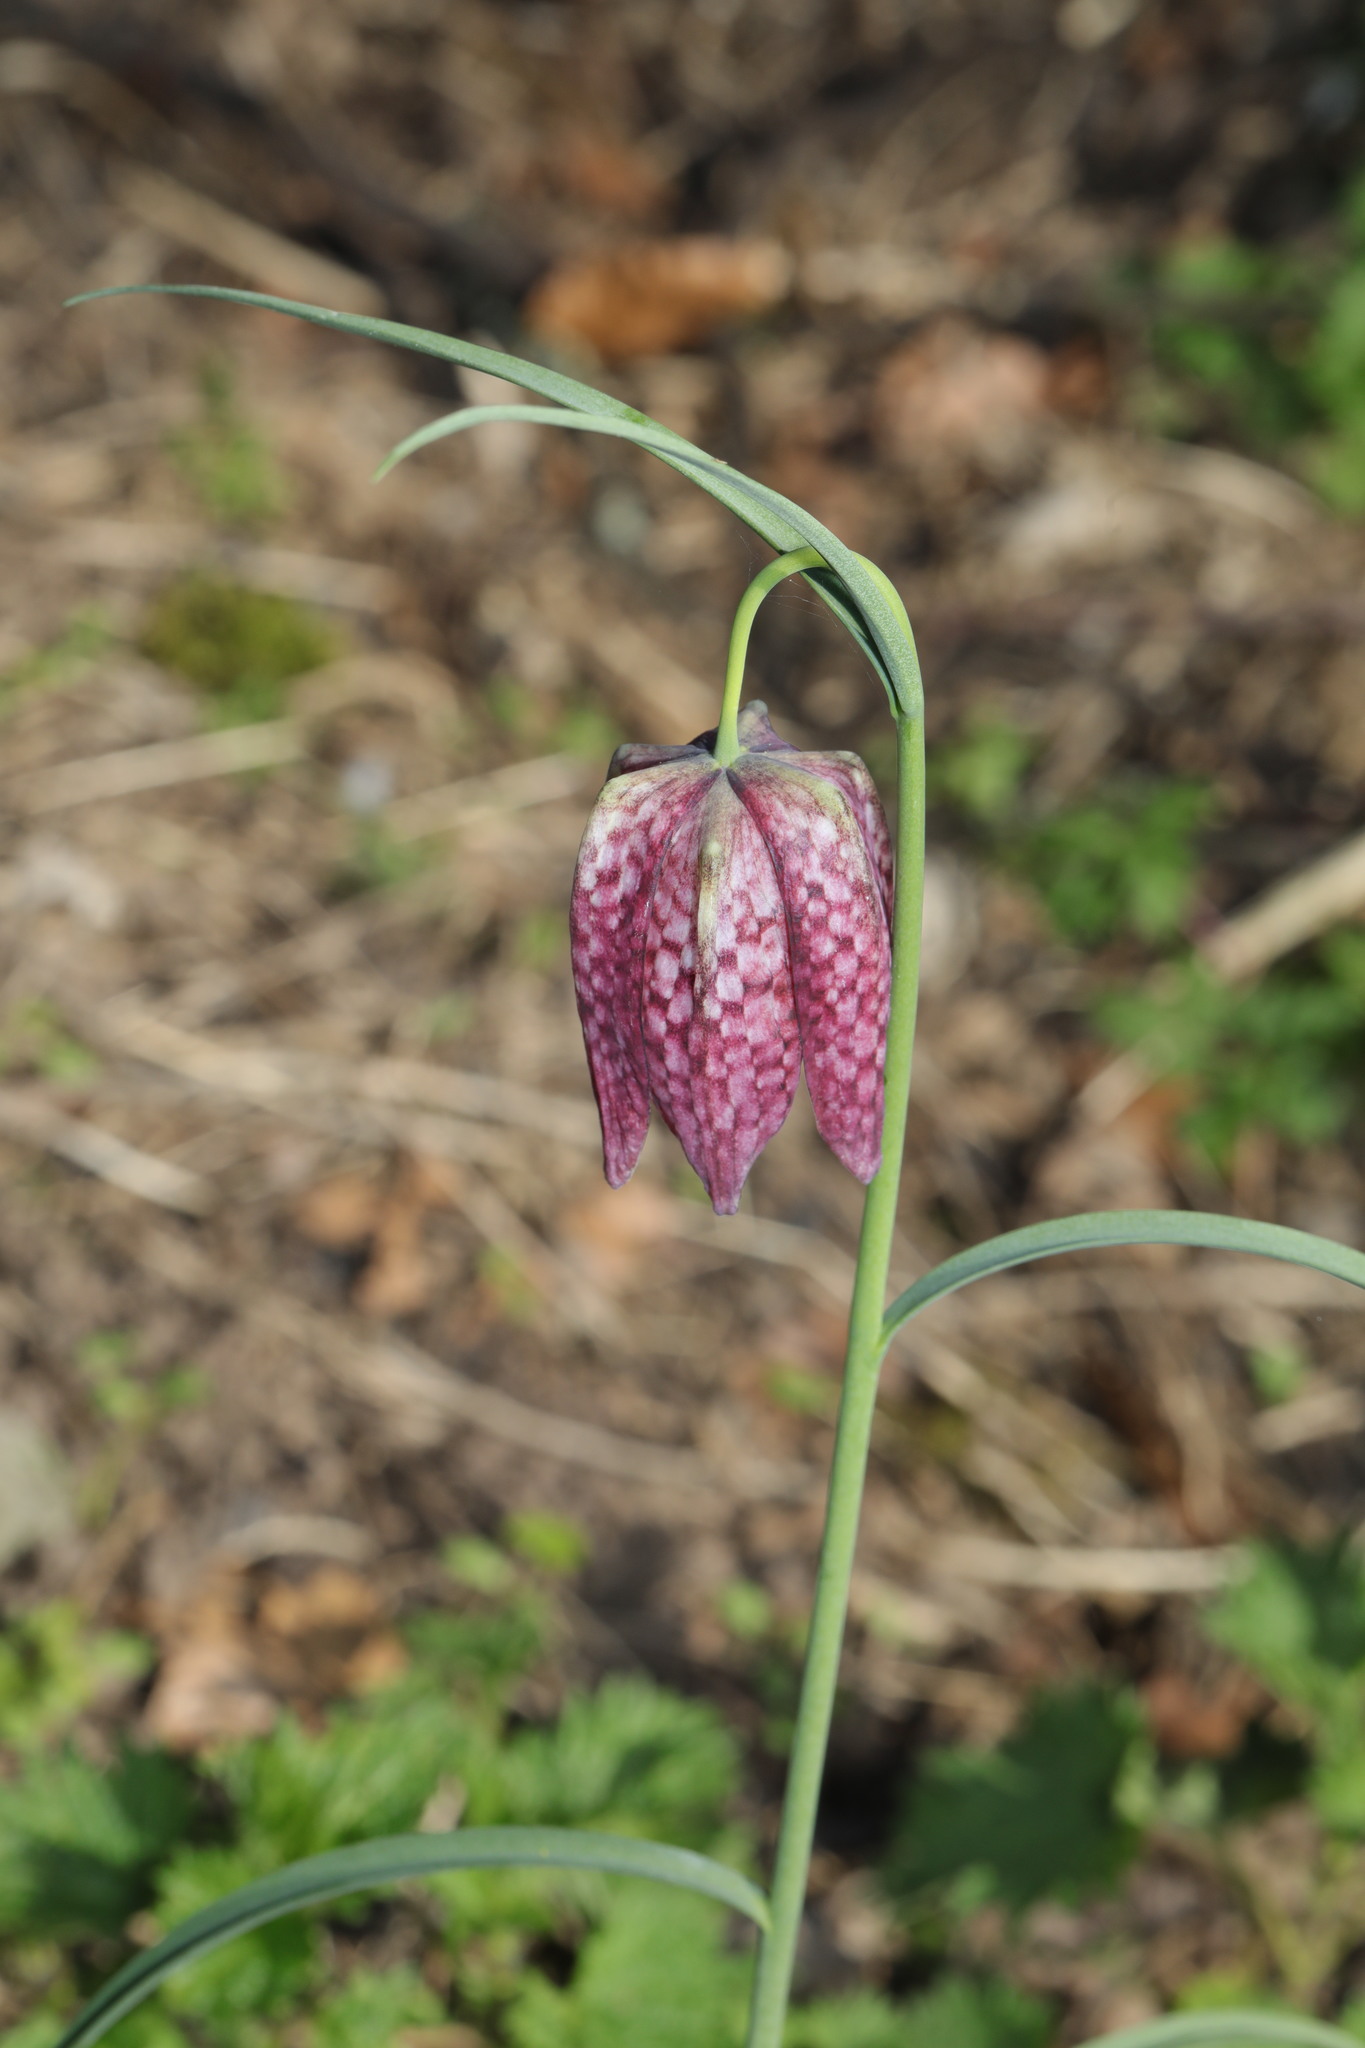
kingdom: Plantae
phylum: Tracheophyta
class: Liliopsida
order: Liliales
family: Liliaceae
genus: Fritillaria
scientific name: Fritillaria meleagris
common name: Fritillary
